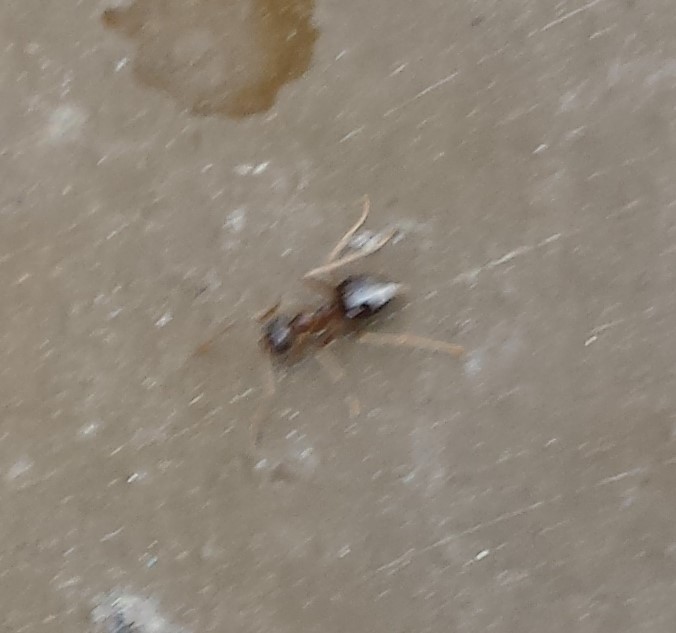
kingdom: Animalia
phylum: Arthropoda
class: Insecta
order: Hymenoptera
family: Formicidae
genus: Prenolepis
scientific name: Prenolepis imparis
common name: Small honey ant
